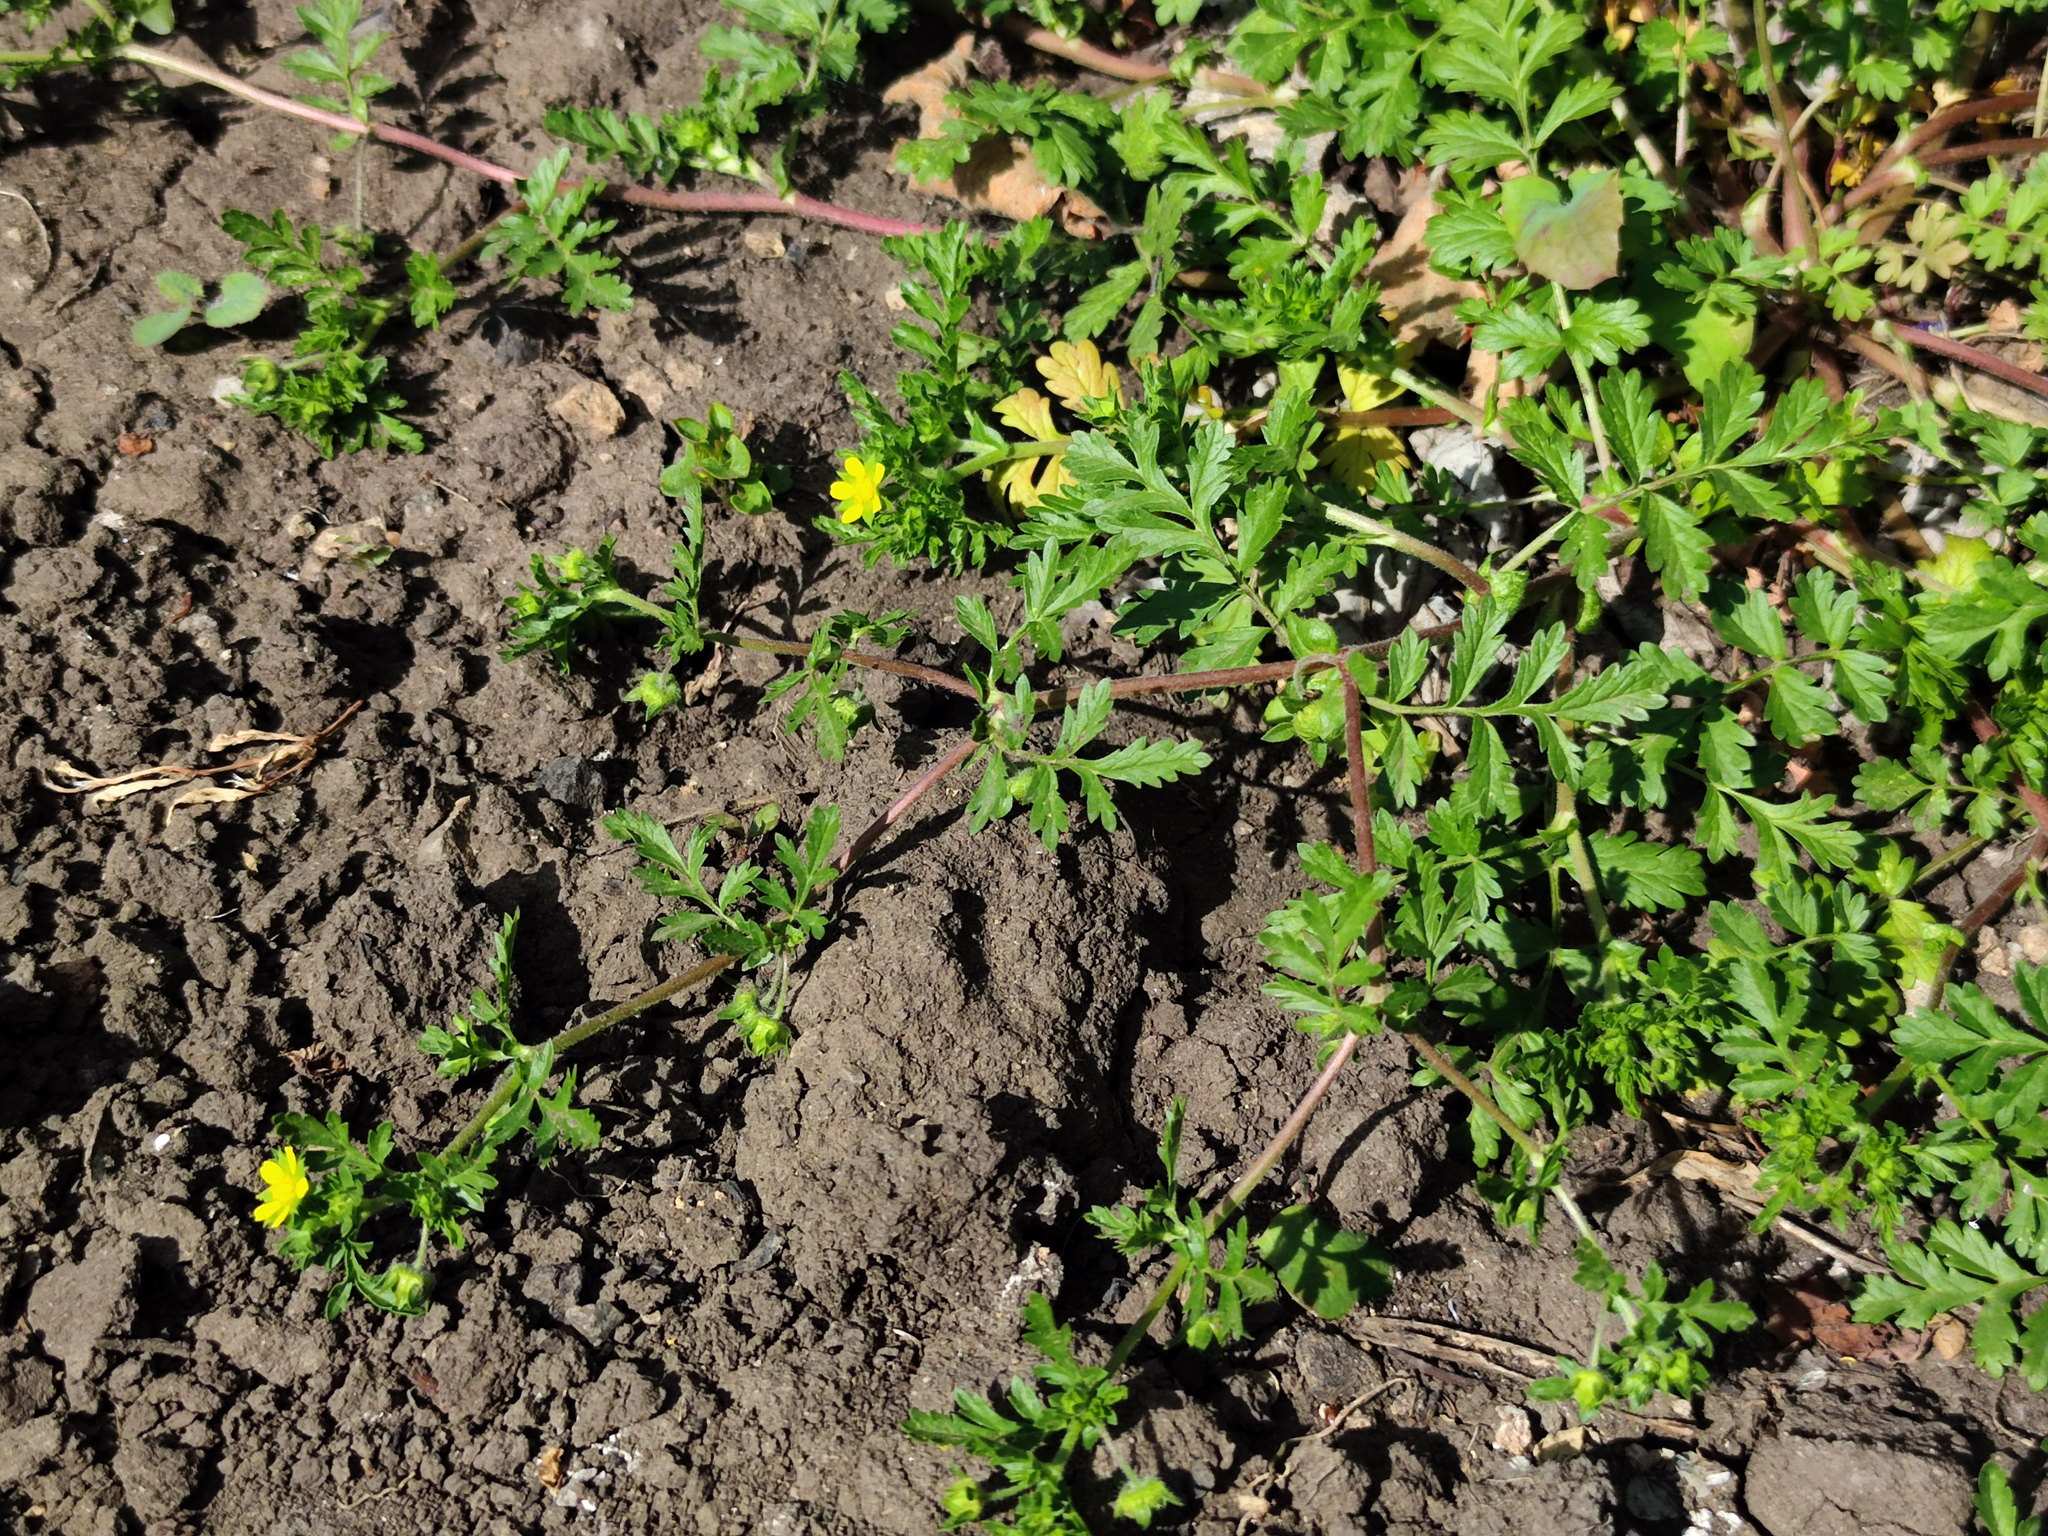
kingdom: Plantae
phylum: Tracheophyta
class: Magnoliopsida
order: Rosales
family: Rosaceae
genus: Potentilla
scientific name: Potentilla supina
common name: Prostrate cinquefoil
